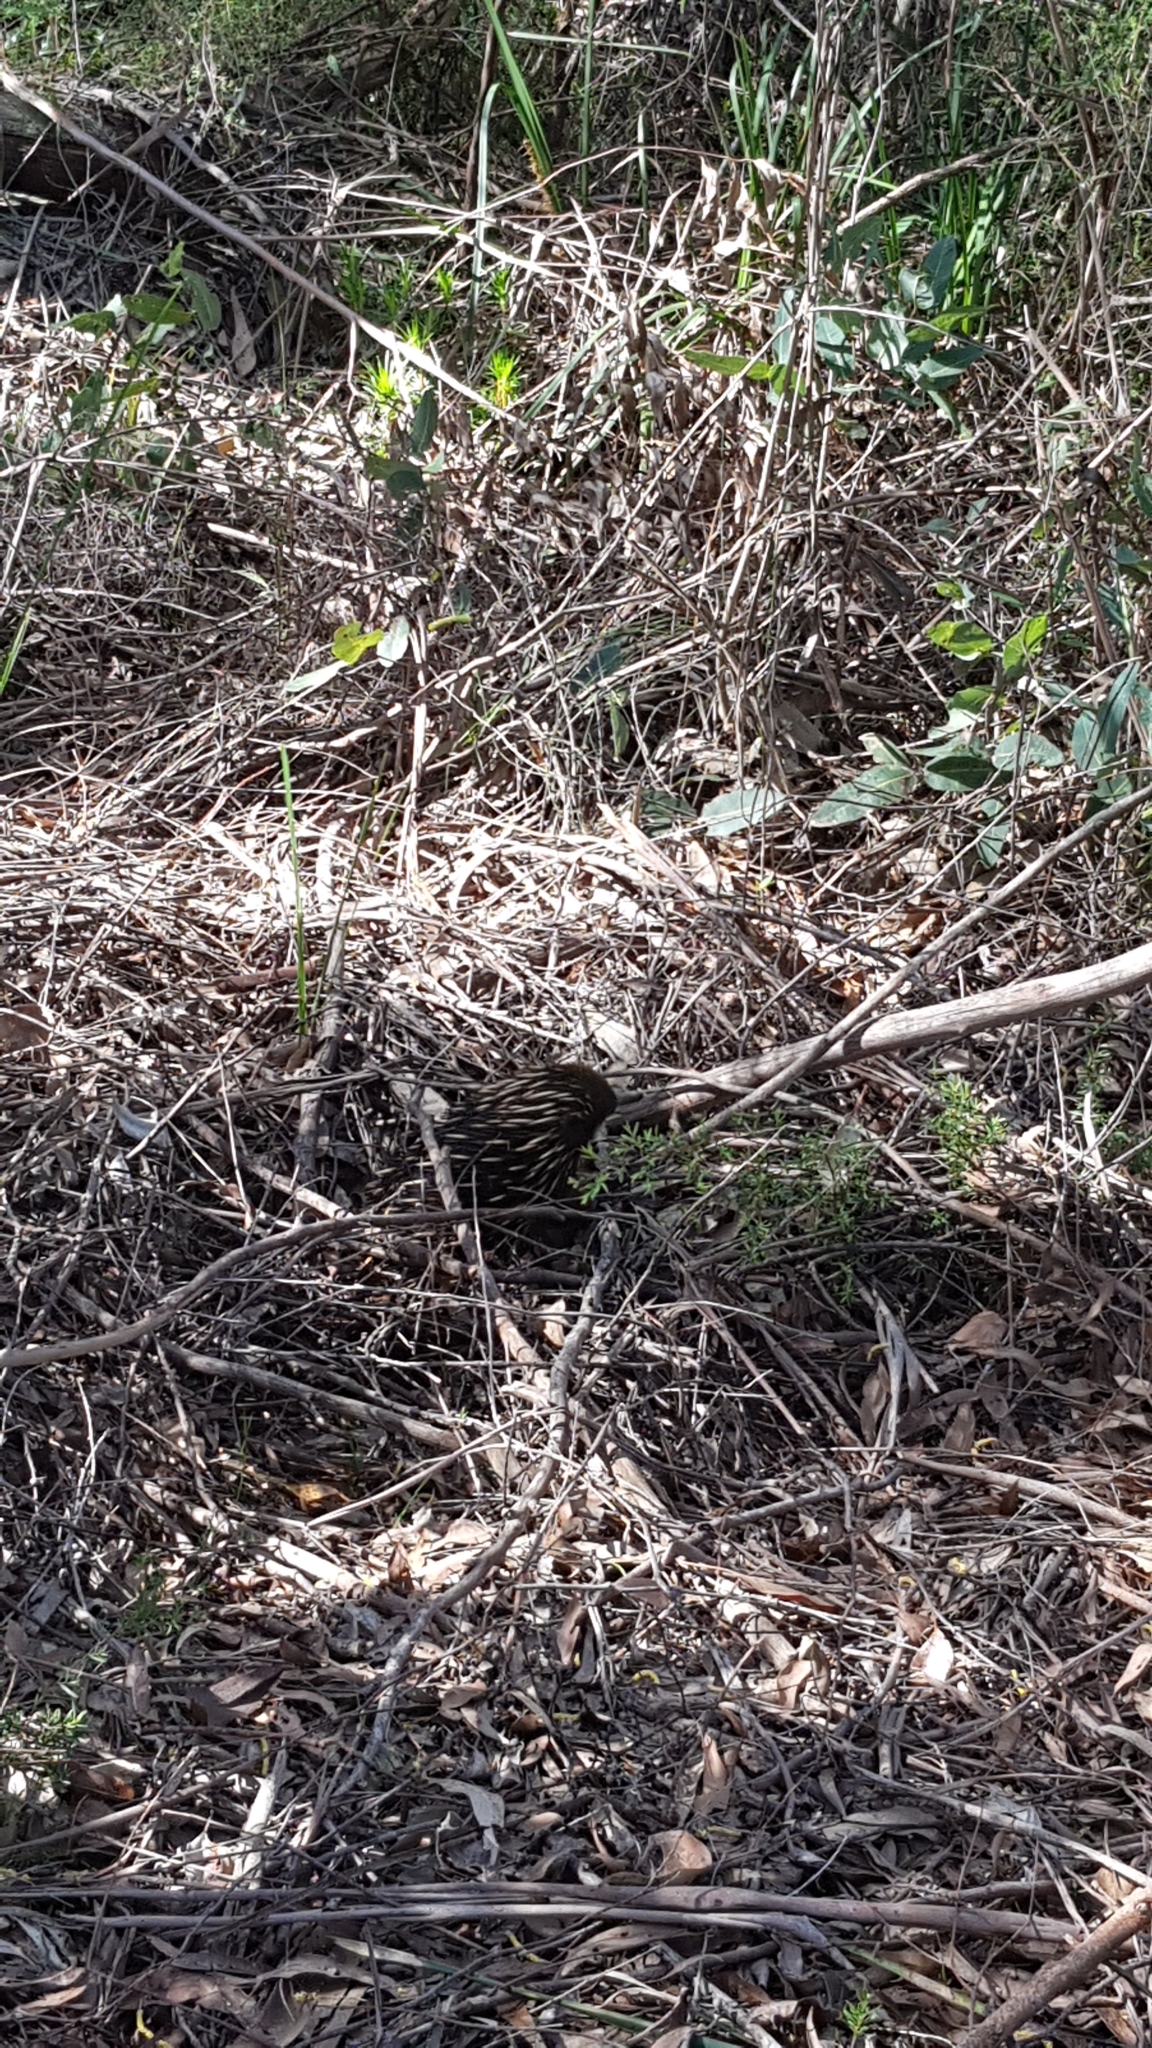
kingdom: Animalia
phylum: Chordata
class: Mammalia
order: Monotremata
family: Tachyglossidae
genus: Tachyglossus
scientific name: Tachyglossus aculeatus
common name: Short-beaked echidna
